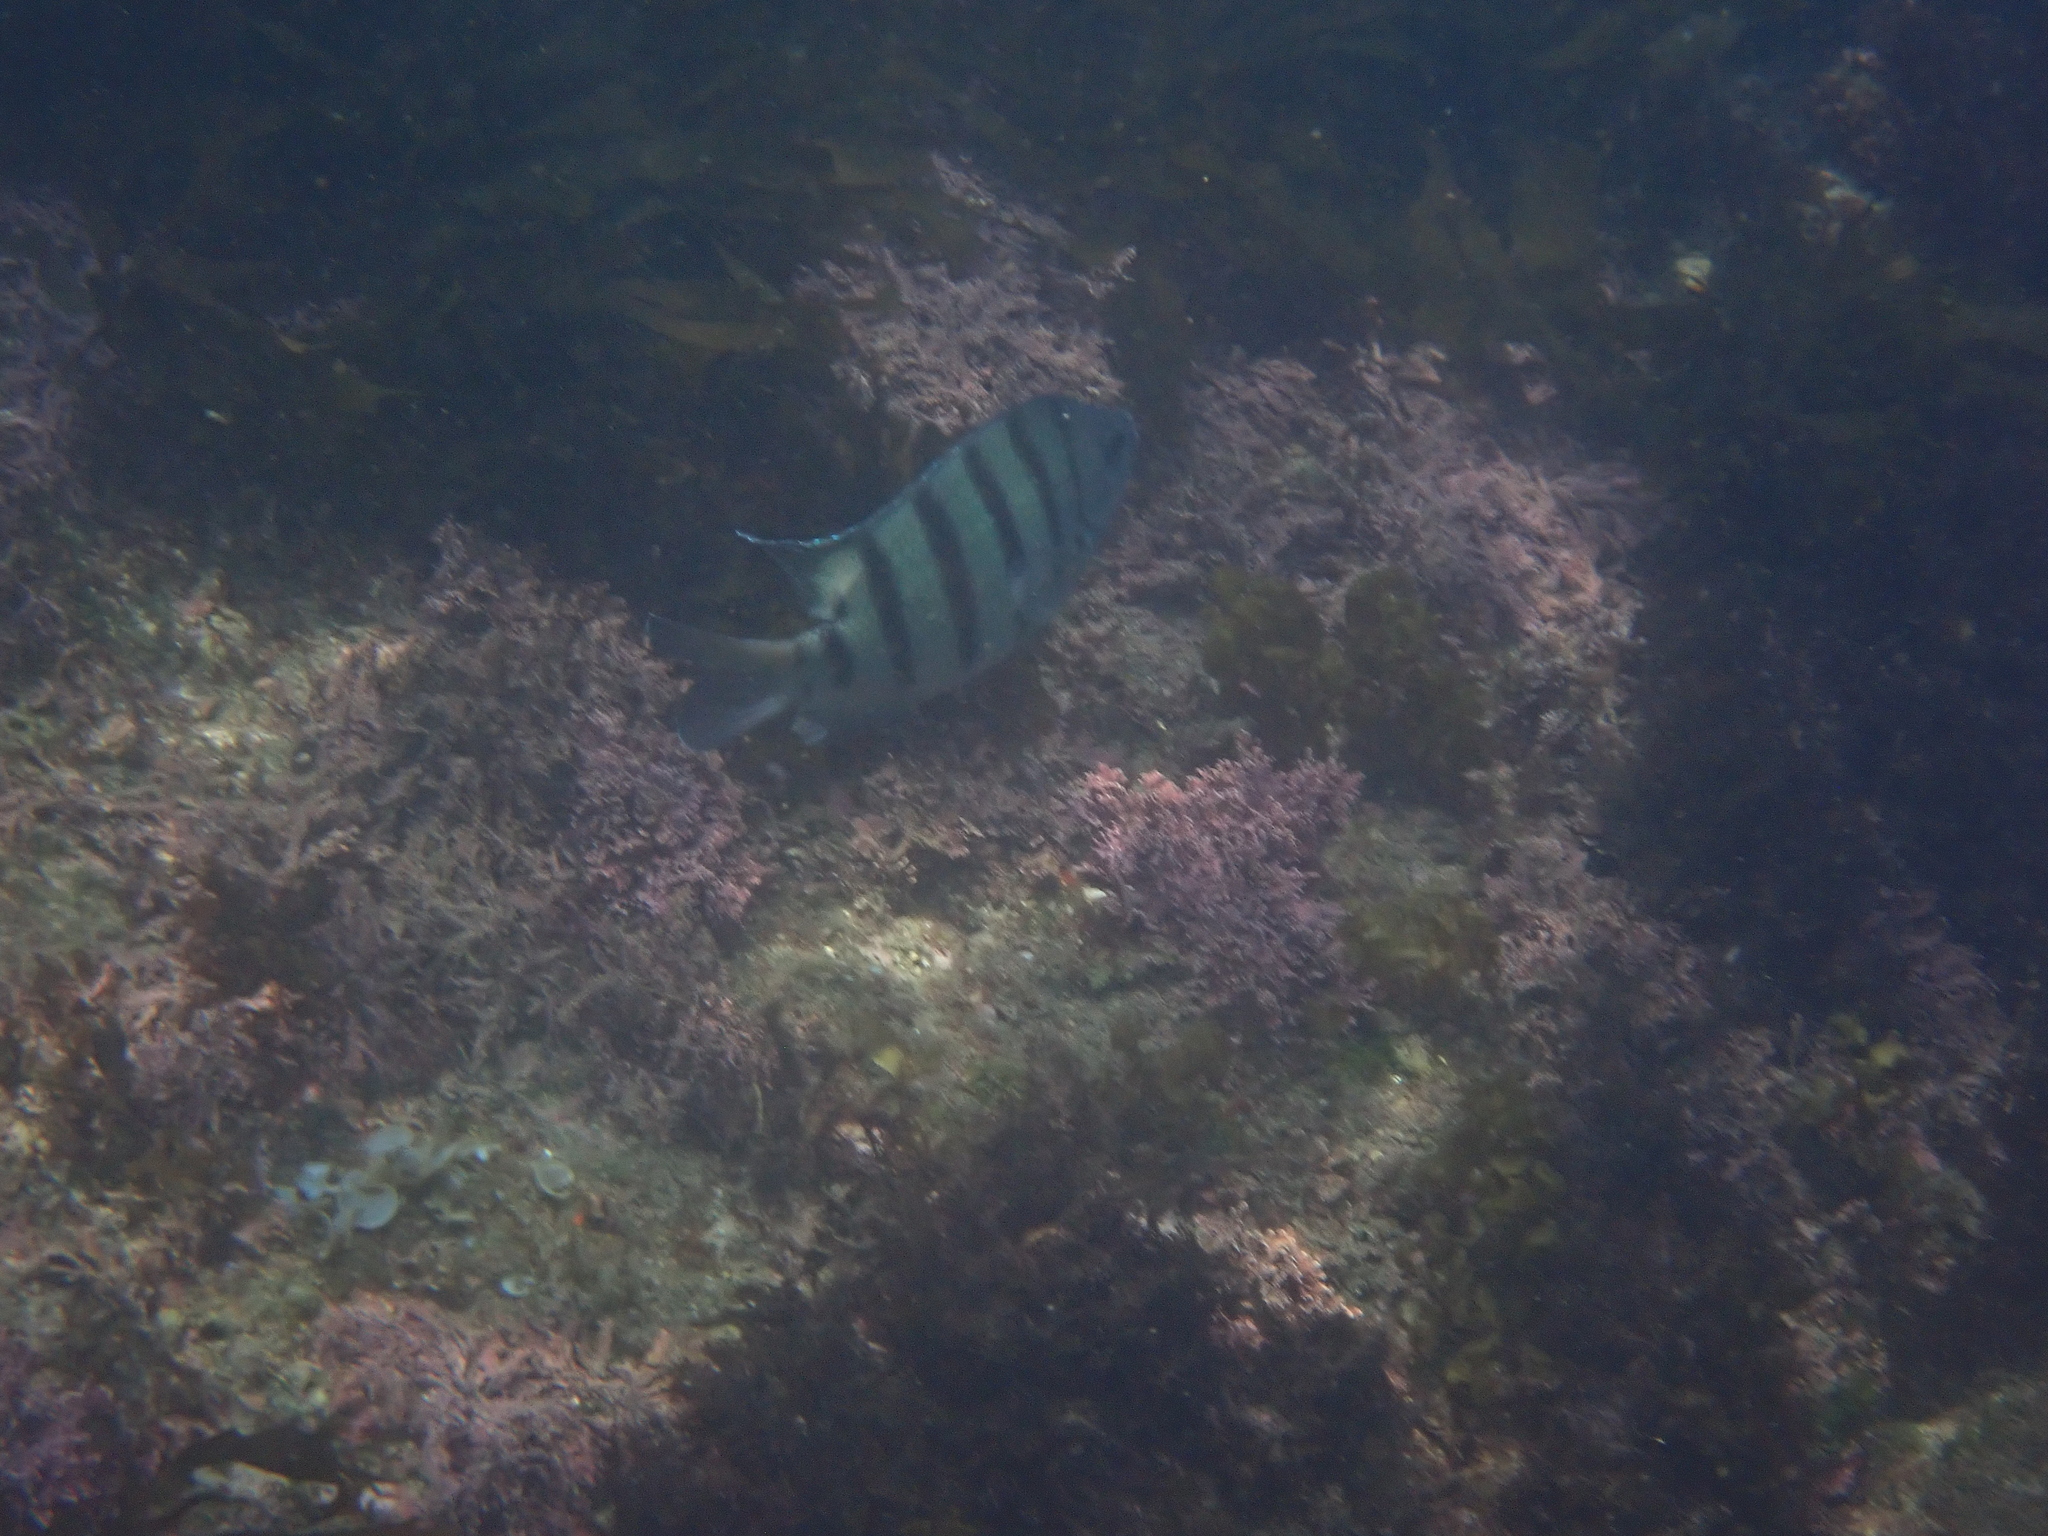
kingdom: Animalia
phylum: Chordata
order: Perciformes
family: Pomacentridae
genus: Abudefduf
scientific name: Abudefduf bengalensis
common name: Bengal sergeant
